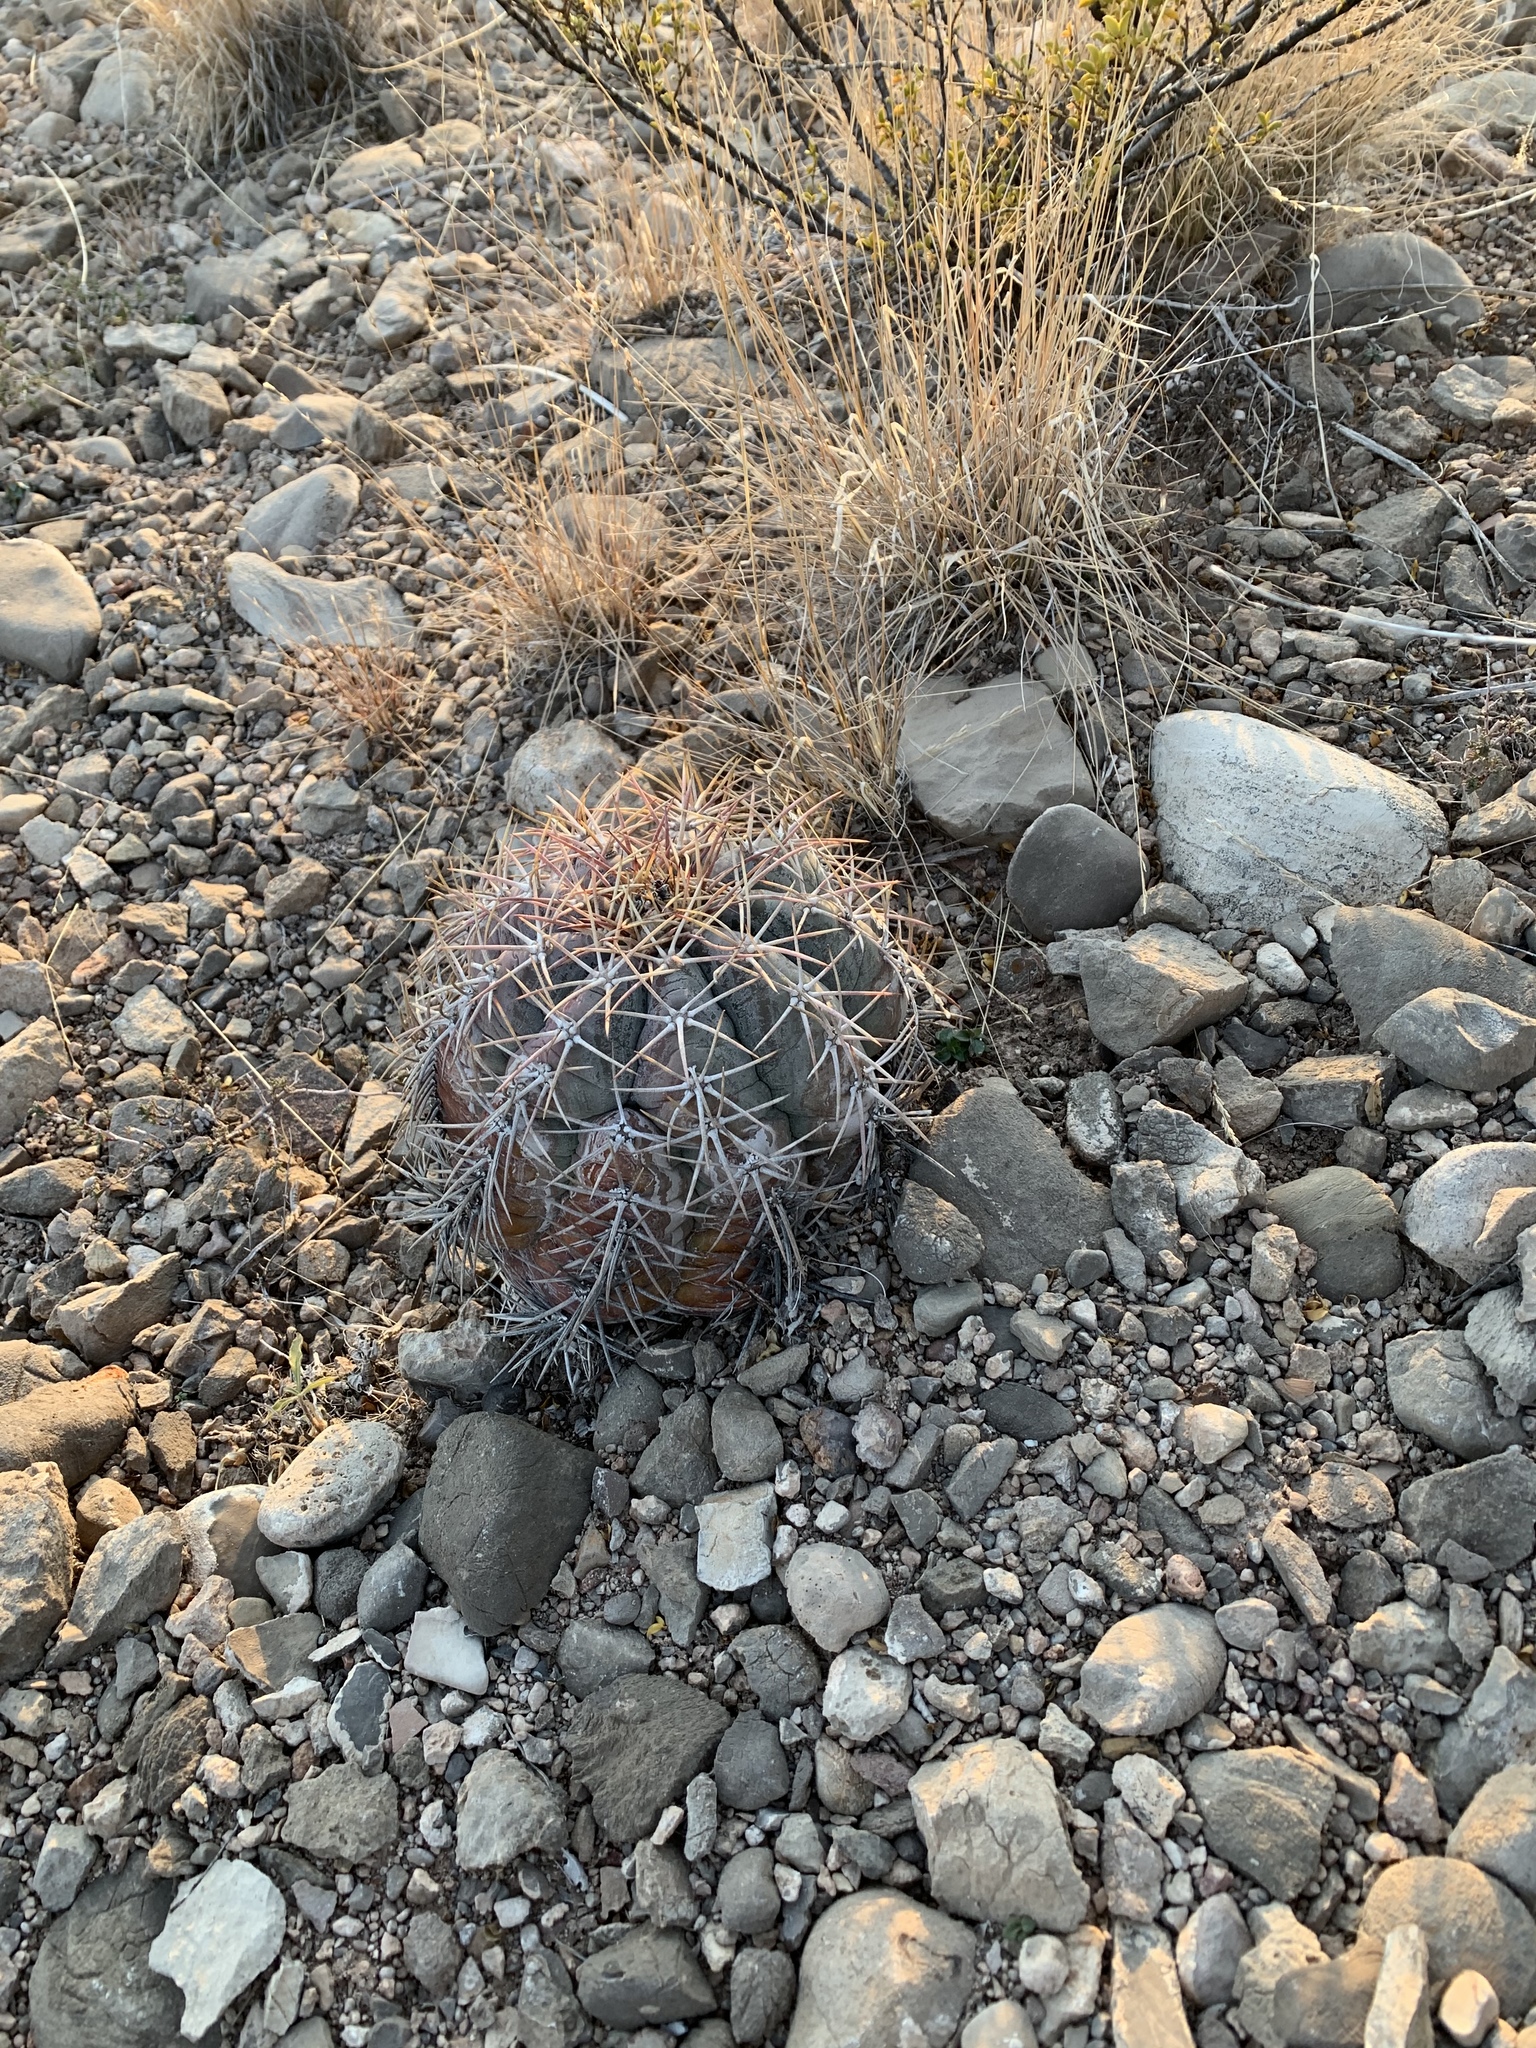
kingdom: Plantae
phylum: Tracheophyta
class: Magnoliopsida
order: Caryophyllales
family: Cactaceae
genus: Echinocactus
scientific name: Echinocactus horizonthalonius
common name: Devilshead
